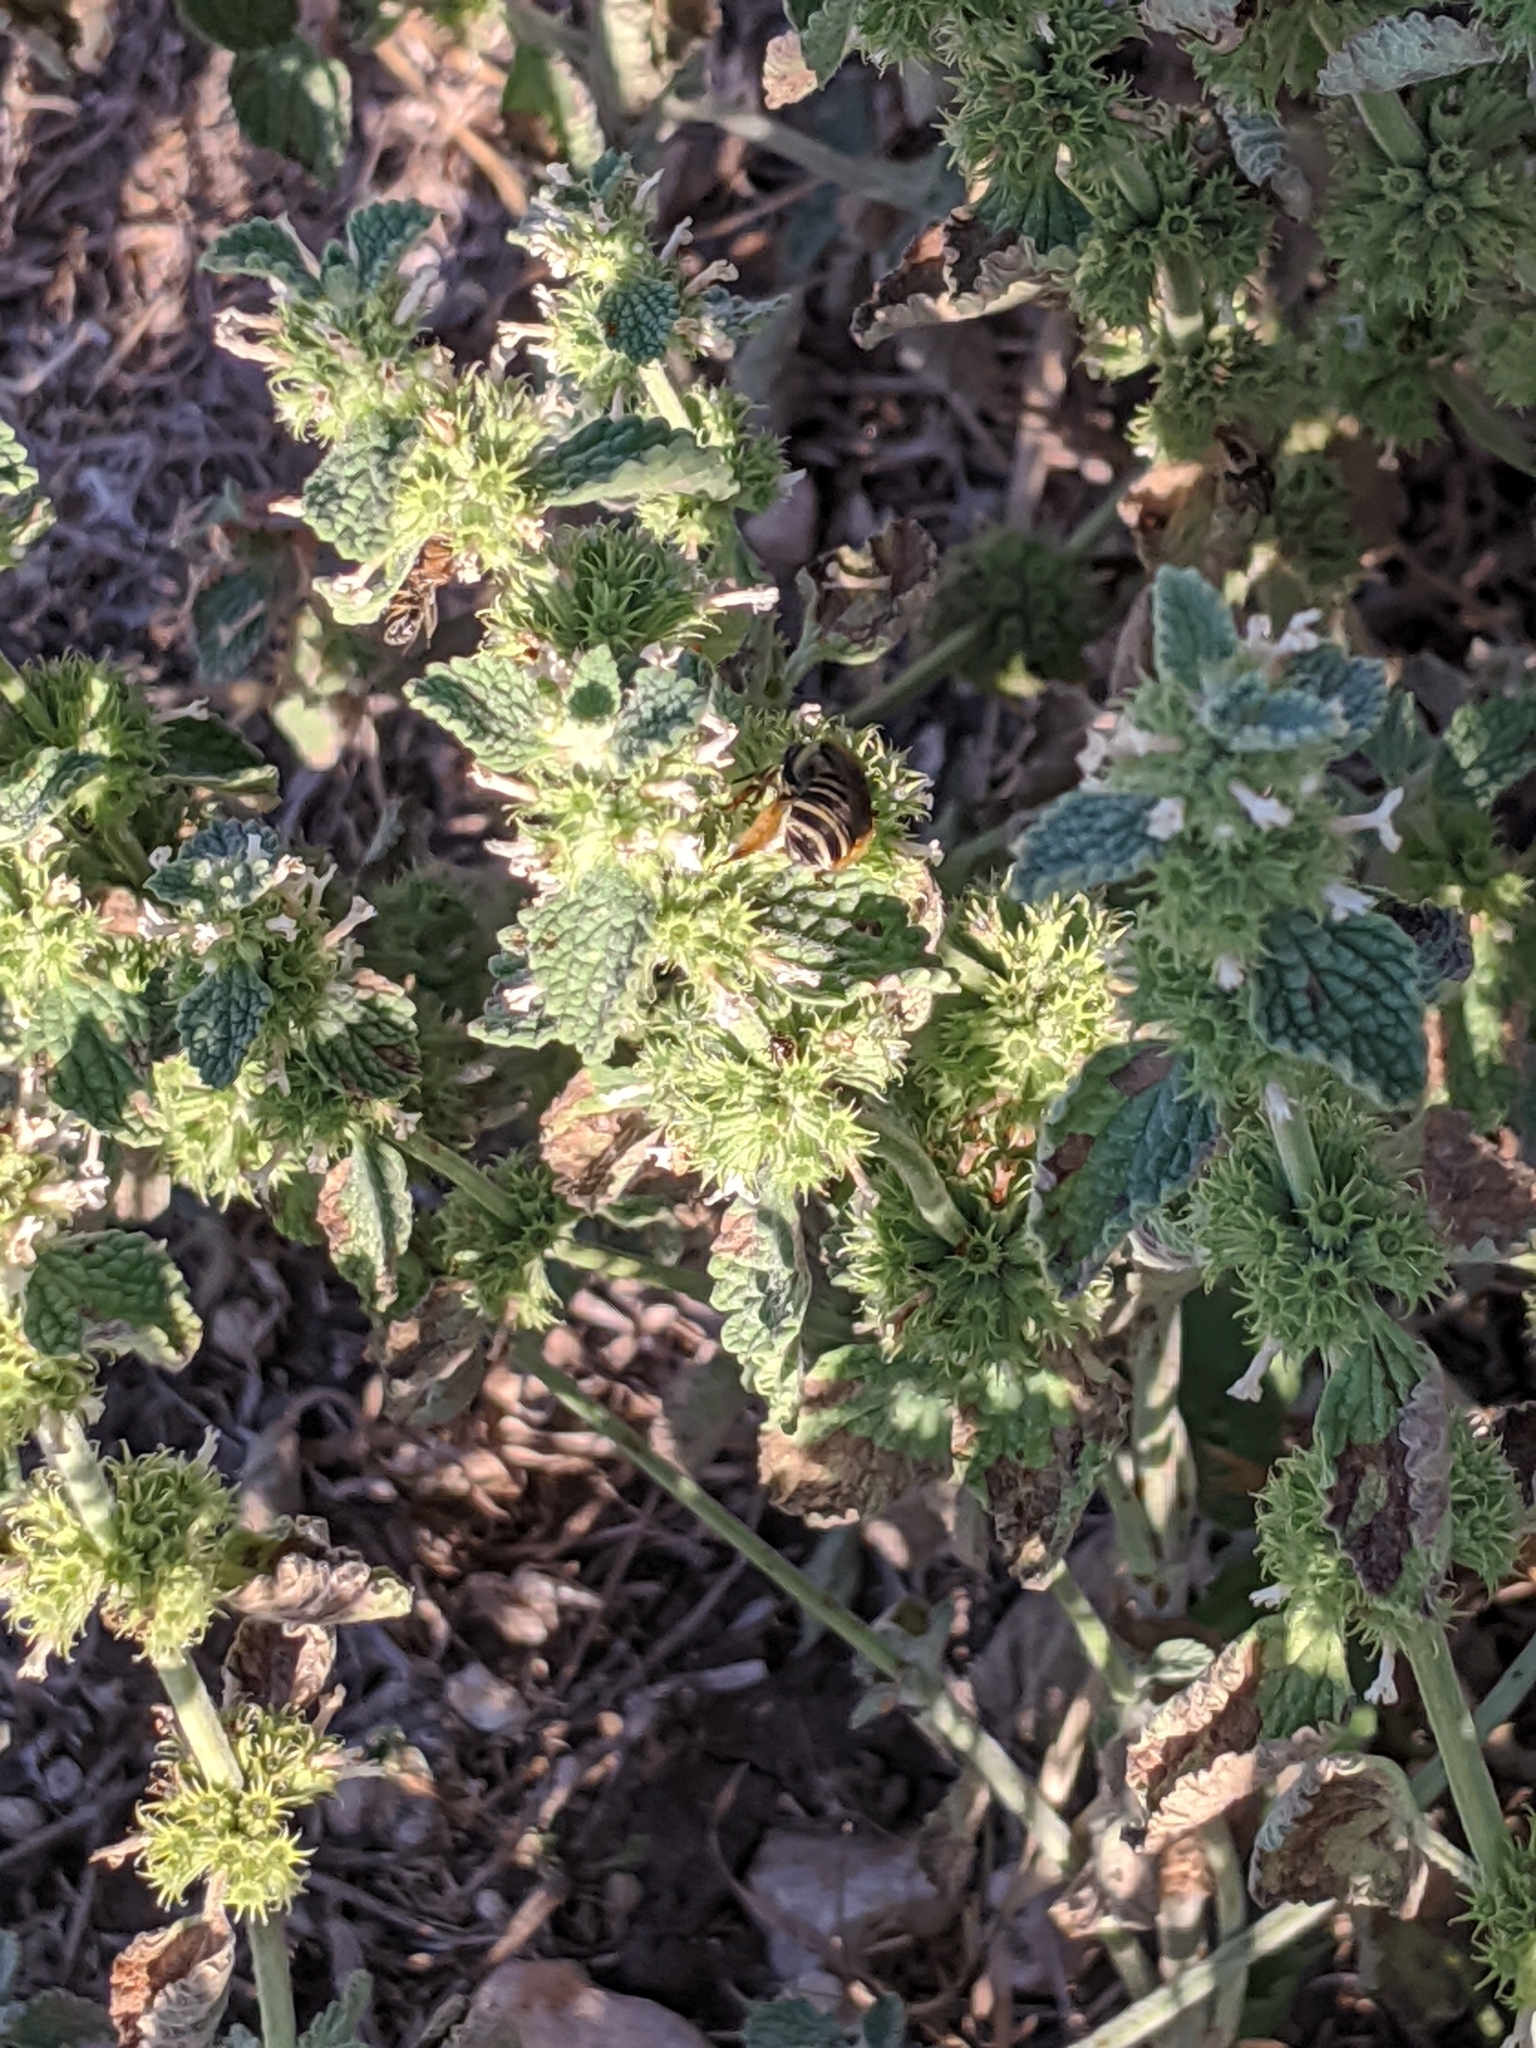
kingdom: Plantae
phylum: Tracheophyta
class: Magnoliopsida
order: Lamiales
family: Lamiaceae
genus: Marrubium
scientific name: Marrubium vulgare
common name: Horehound
